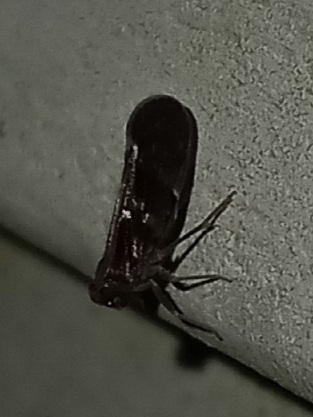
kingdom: Animalia
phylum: Arthropoda
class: Insecta
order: Hemiptera
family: Cixiidae
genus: Pintalia
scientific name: Pintalia vibex
